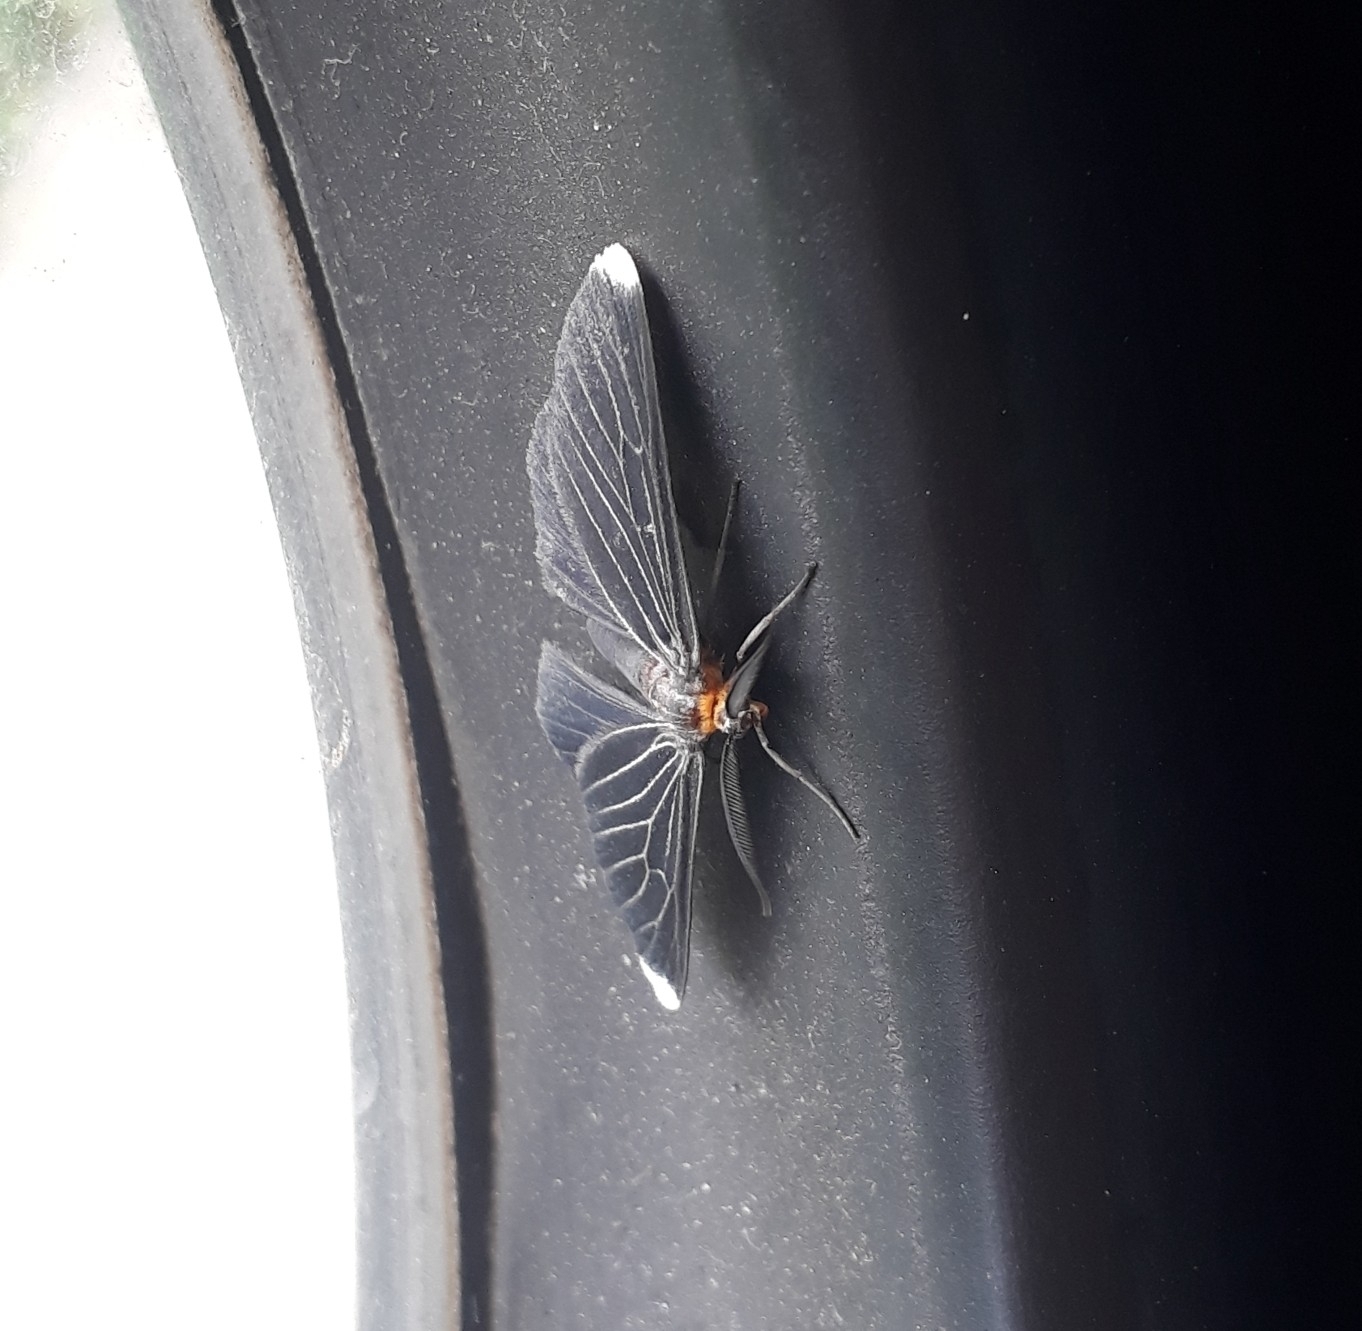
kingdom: Animalia
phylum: Arthropoda
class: Insecta
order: Lepidoptera
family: Geometridae
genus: Melanchroia
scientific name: Melanchroia chephise
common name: White-tipped black
